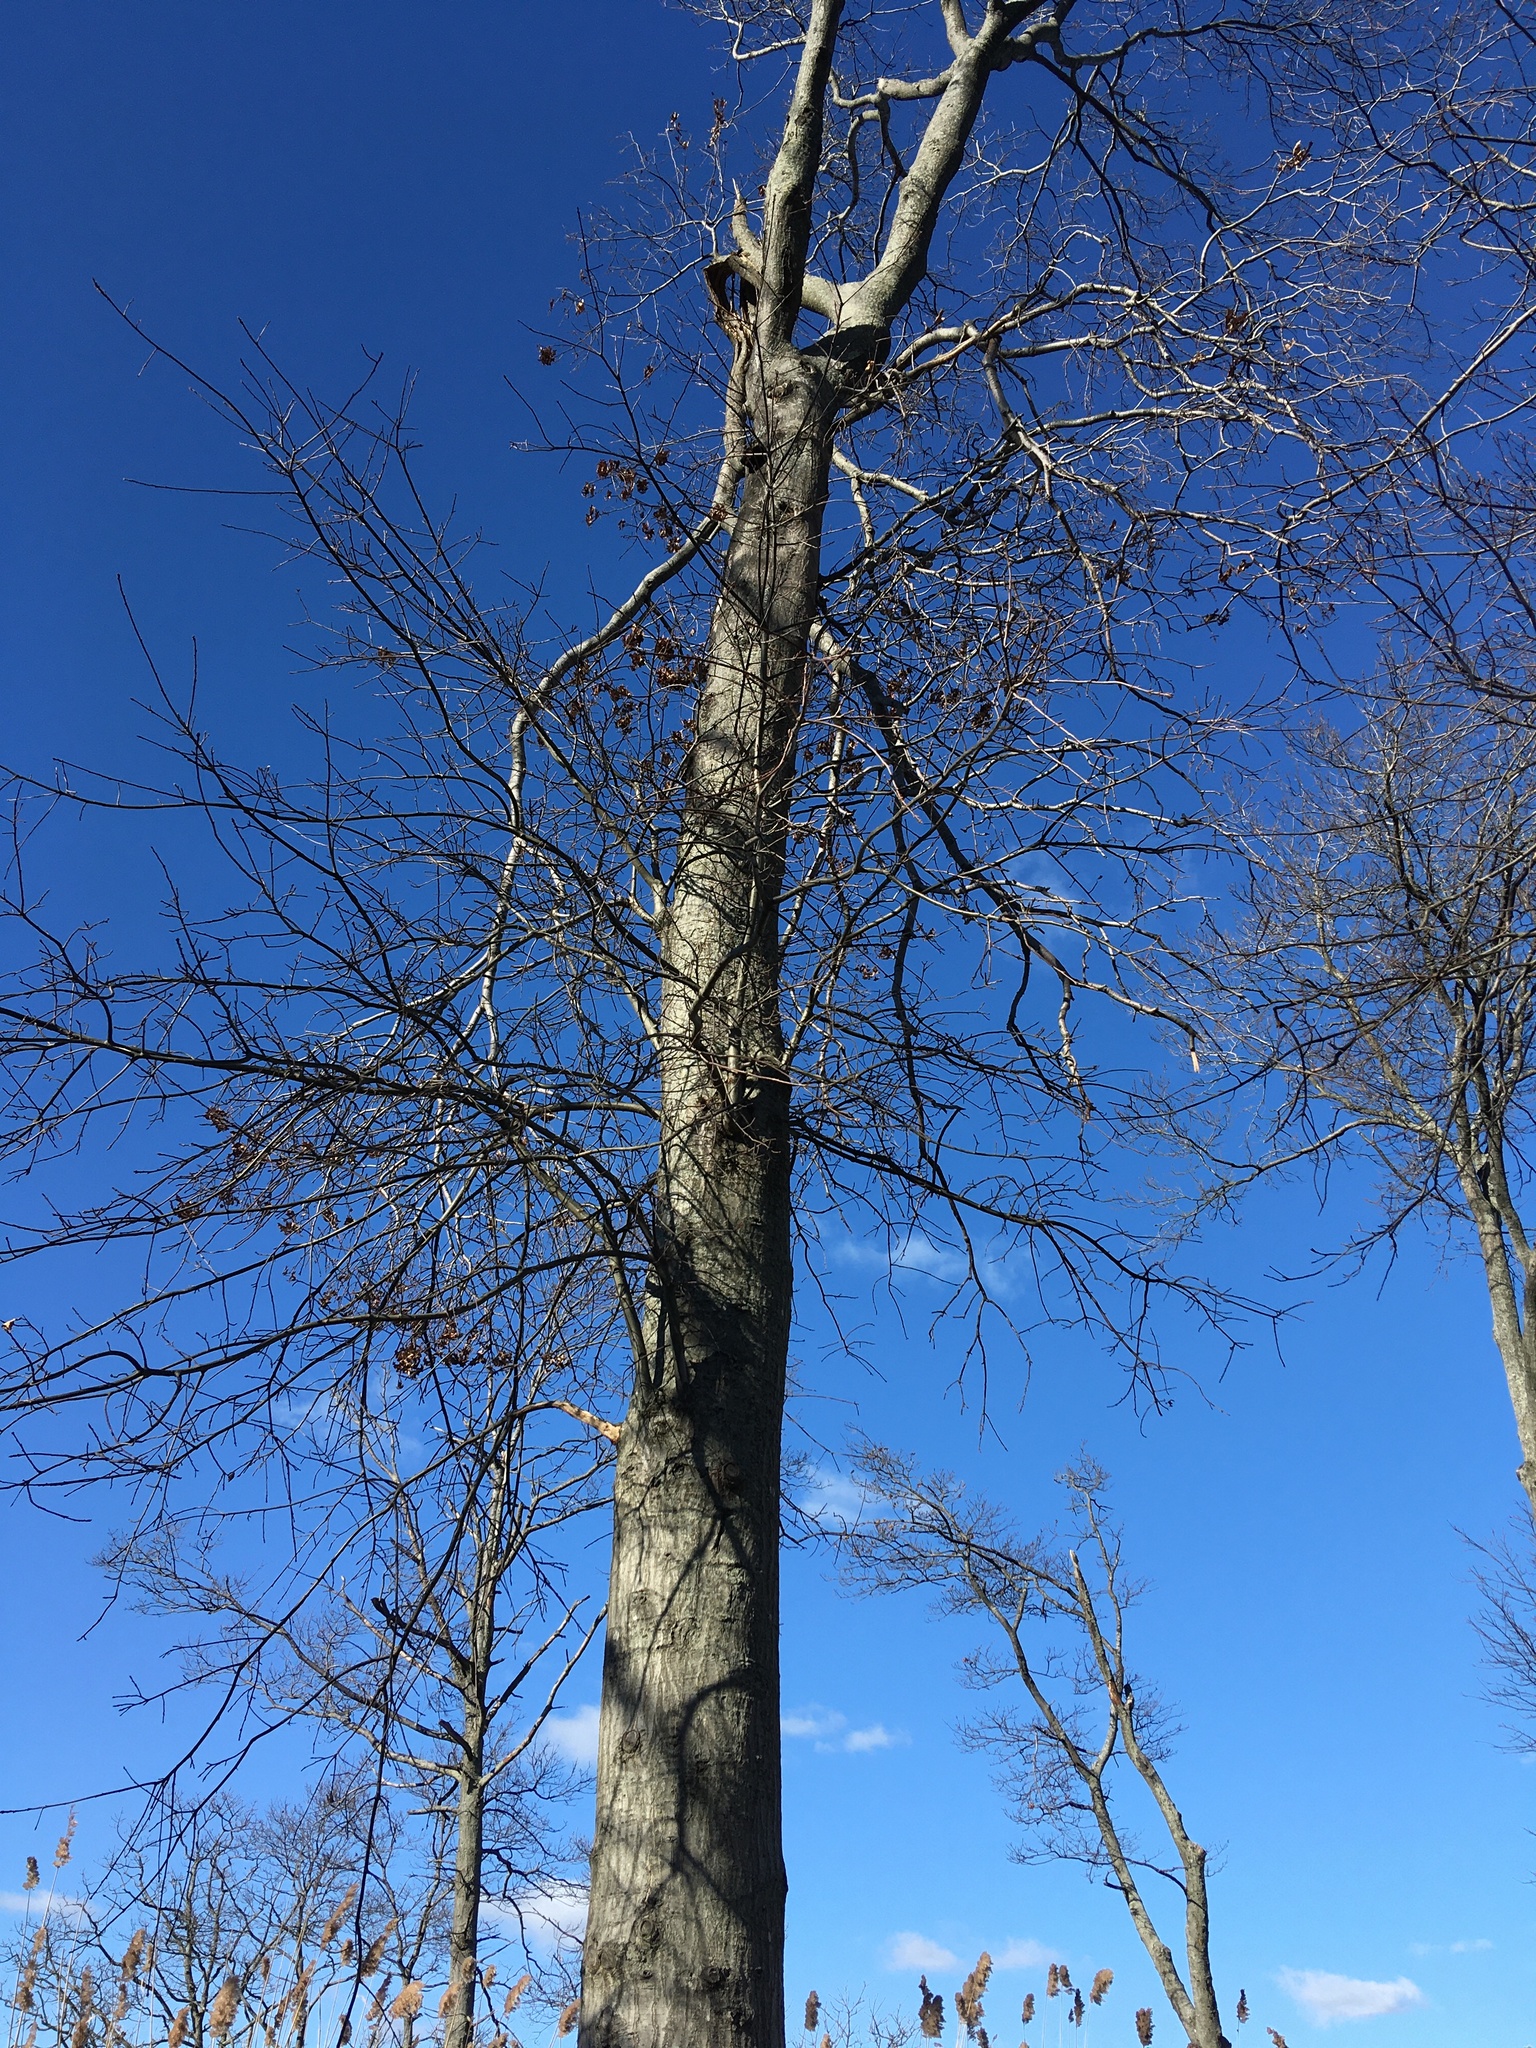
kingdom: Plantae
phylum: Tracheophyta
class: Magnoliopsida
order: Fagales
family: Fagaceae
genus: Quercus
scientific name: Quercus palustris
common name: Pin oak
